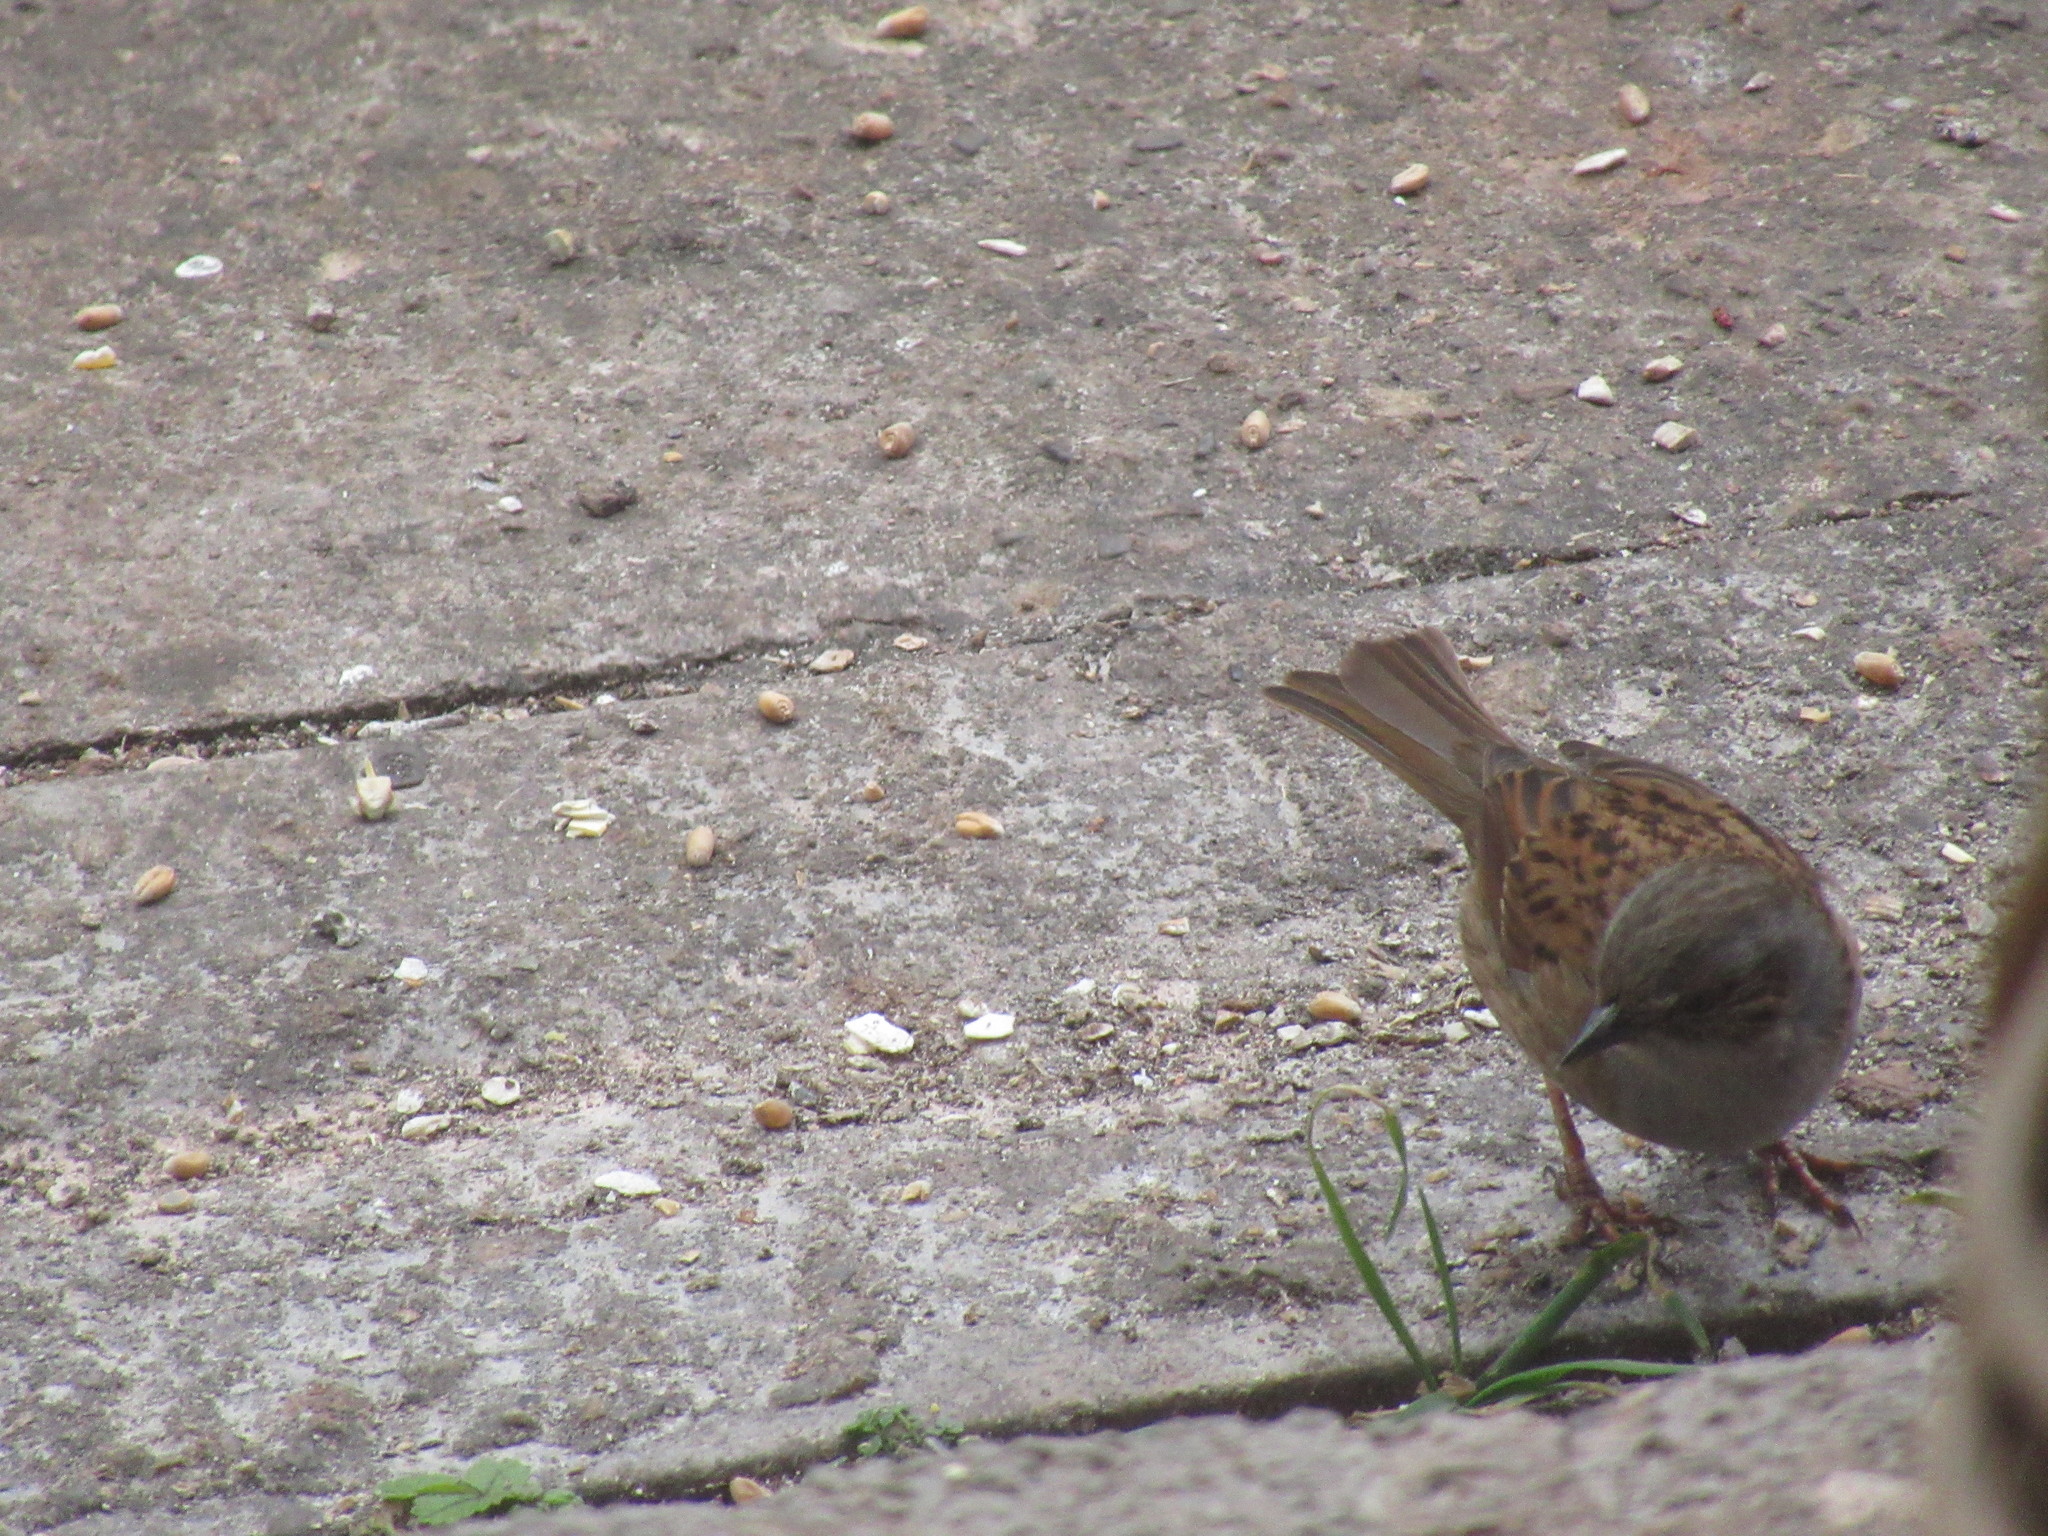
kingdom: Animalia
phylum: Chordata
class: Aves
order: Passeriformes
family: Prunellidae
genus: Prunella
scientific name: Prunella modularis
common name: Dunnock
